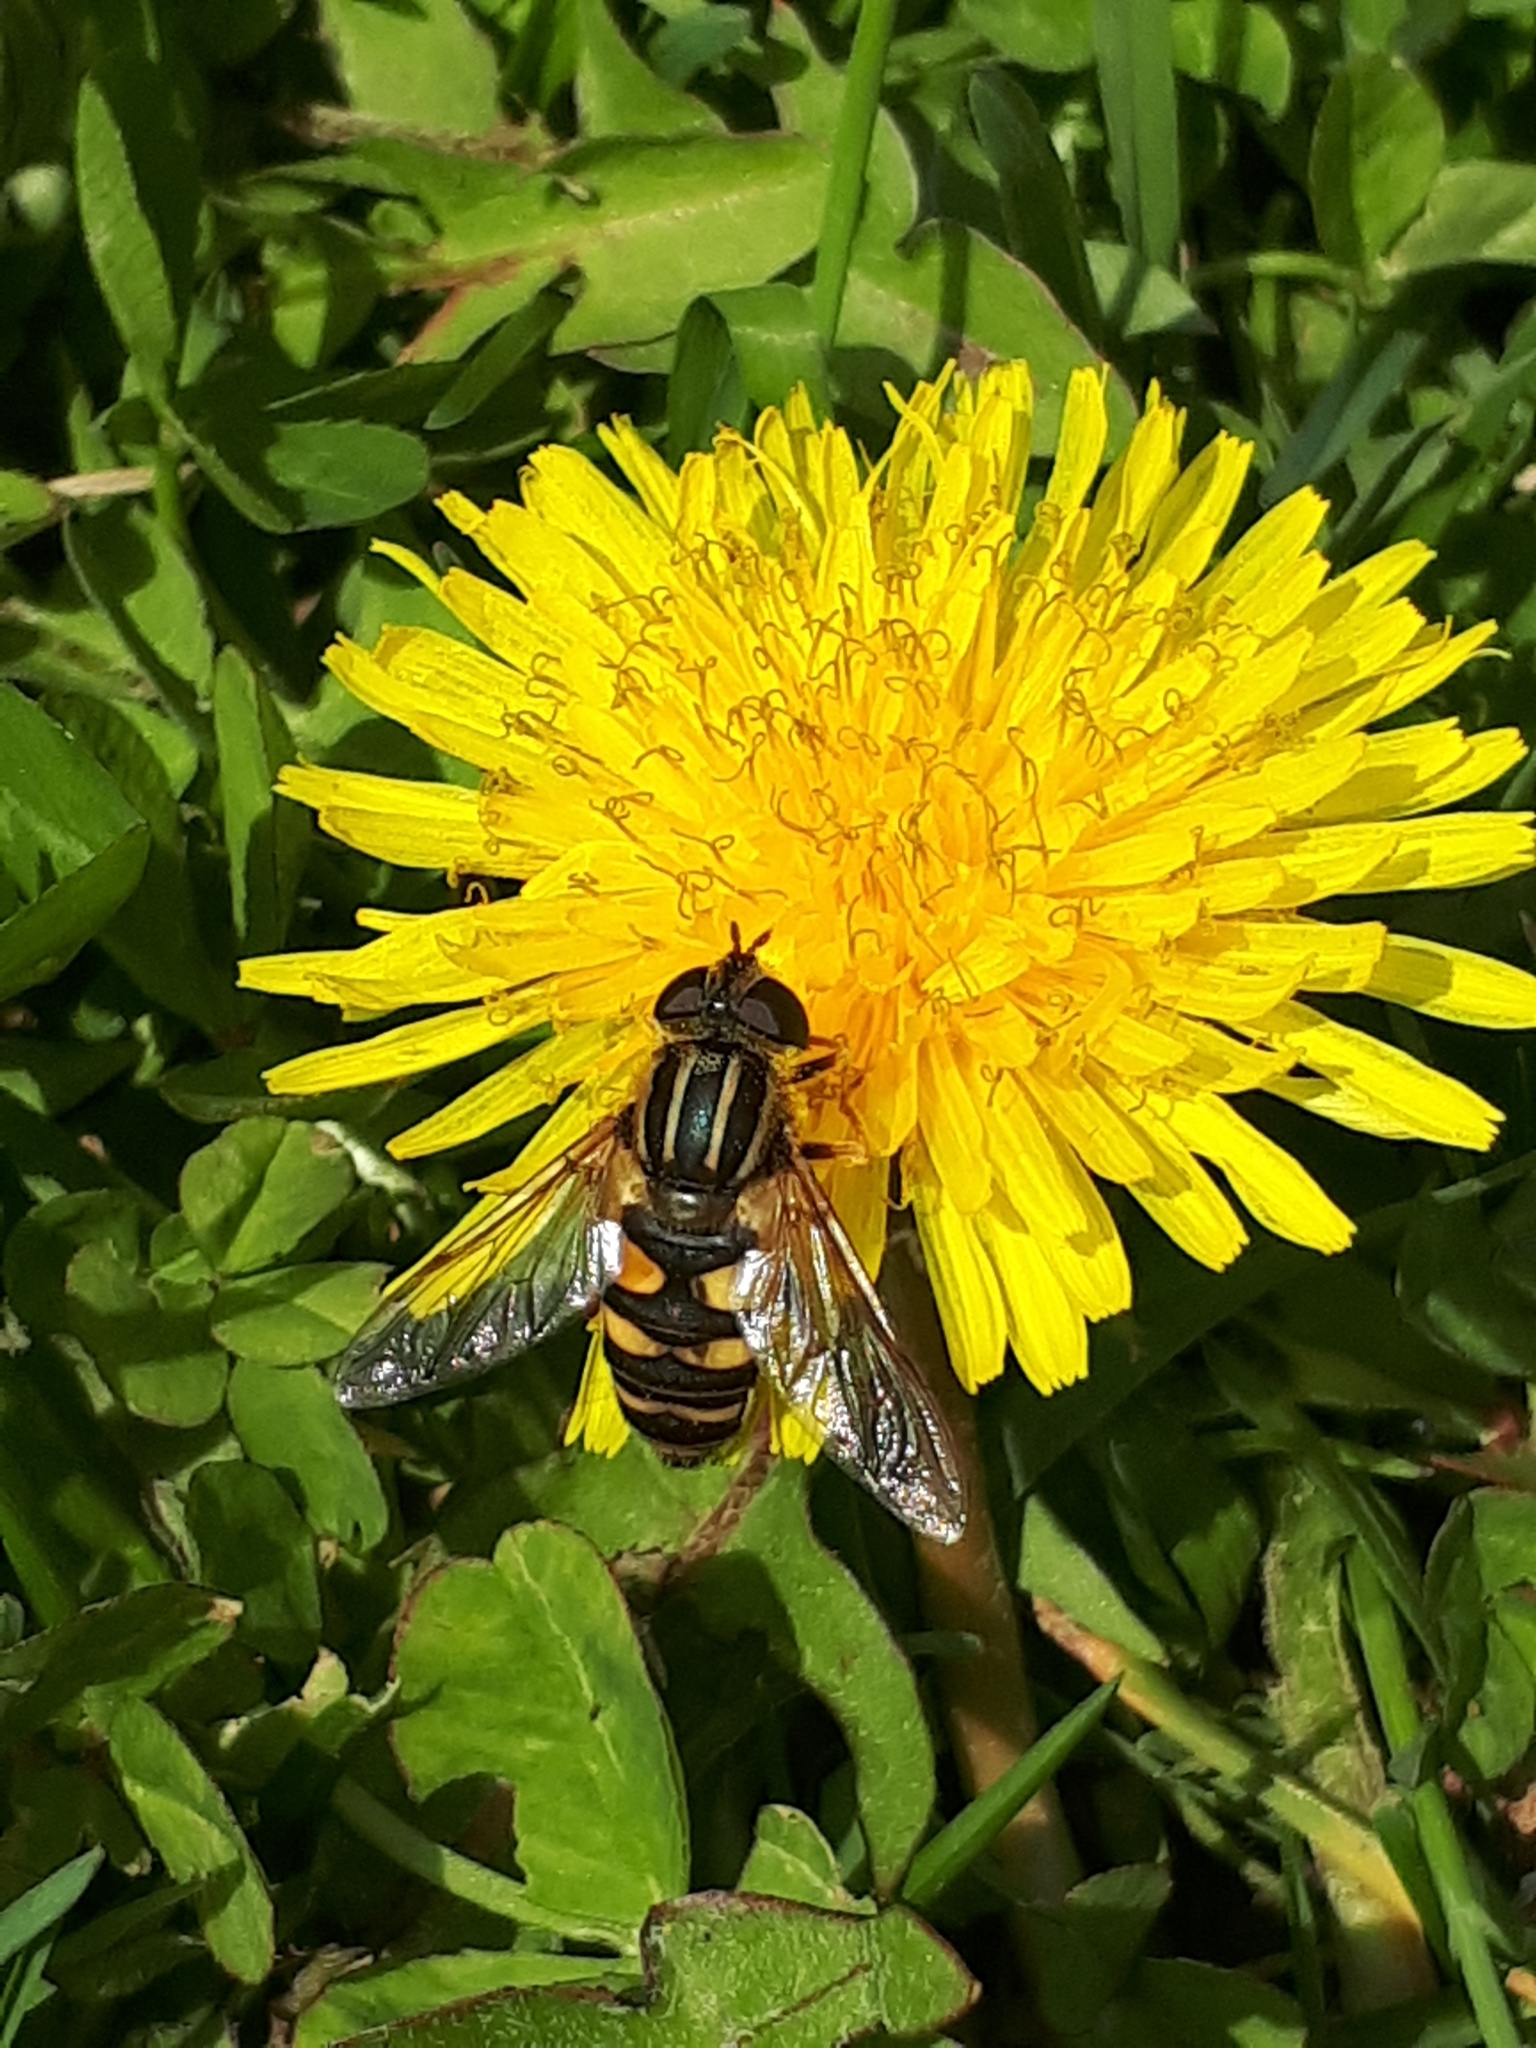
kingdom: Animalia
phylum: Arthropoda
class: Insecta
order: Diptera
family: Syrphidae
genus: Helophilus
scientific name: Helophilus fasciatus
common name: Narrow-headed marsh fly
